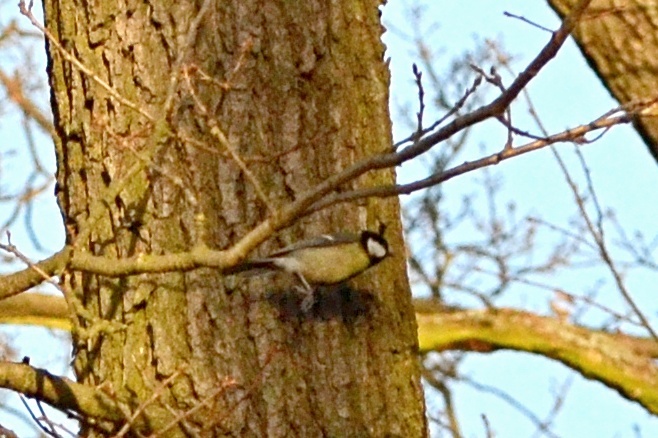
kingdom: Animalia
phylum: Chordata
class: Aves
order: Passeriformes
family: Paridae
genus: Parus
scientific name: Parus major
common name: Great tit
